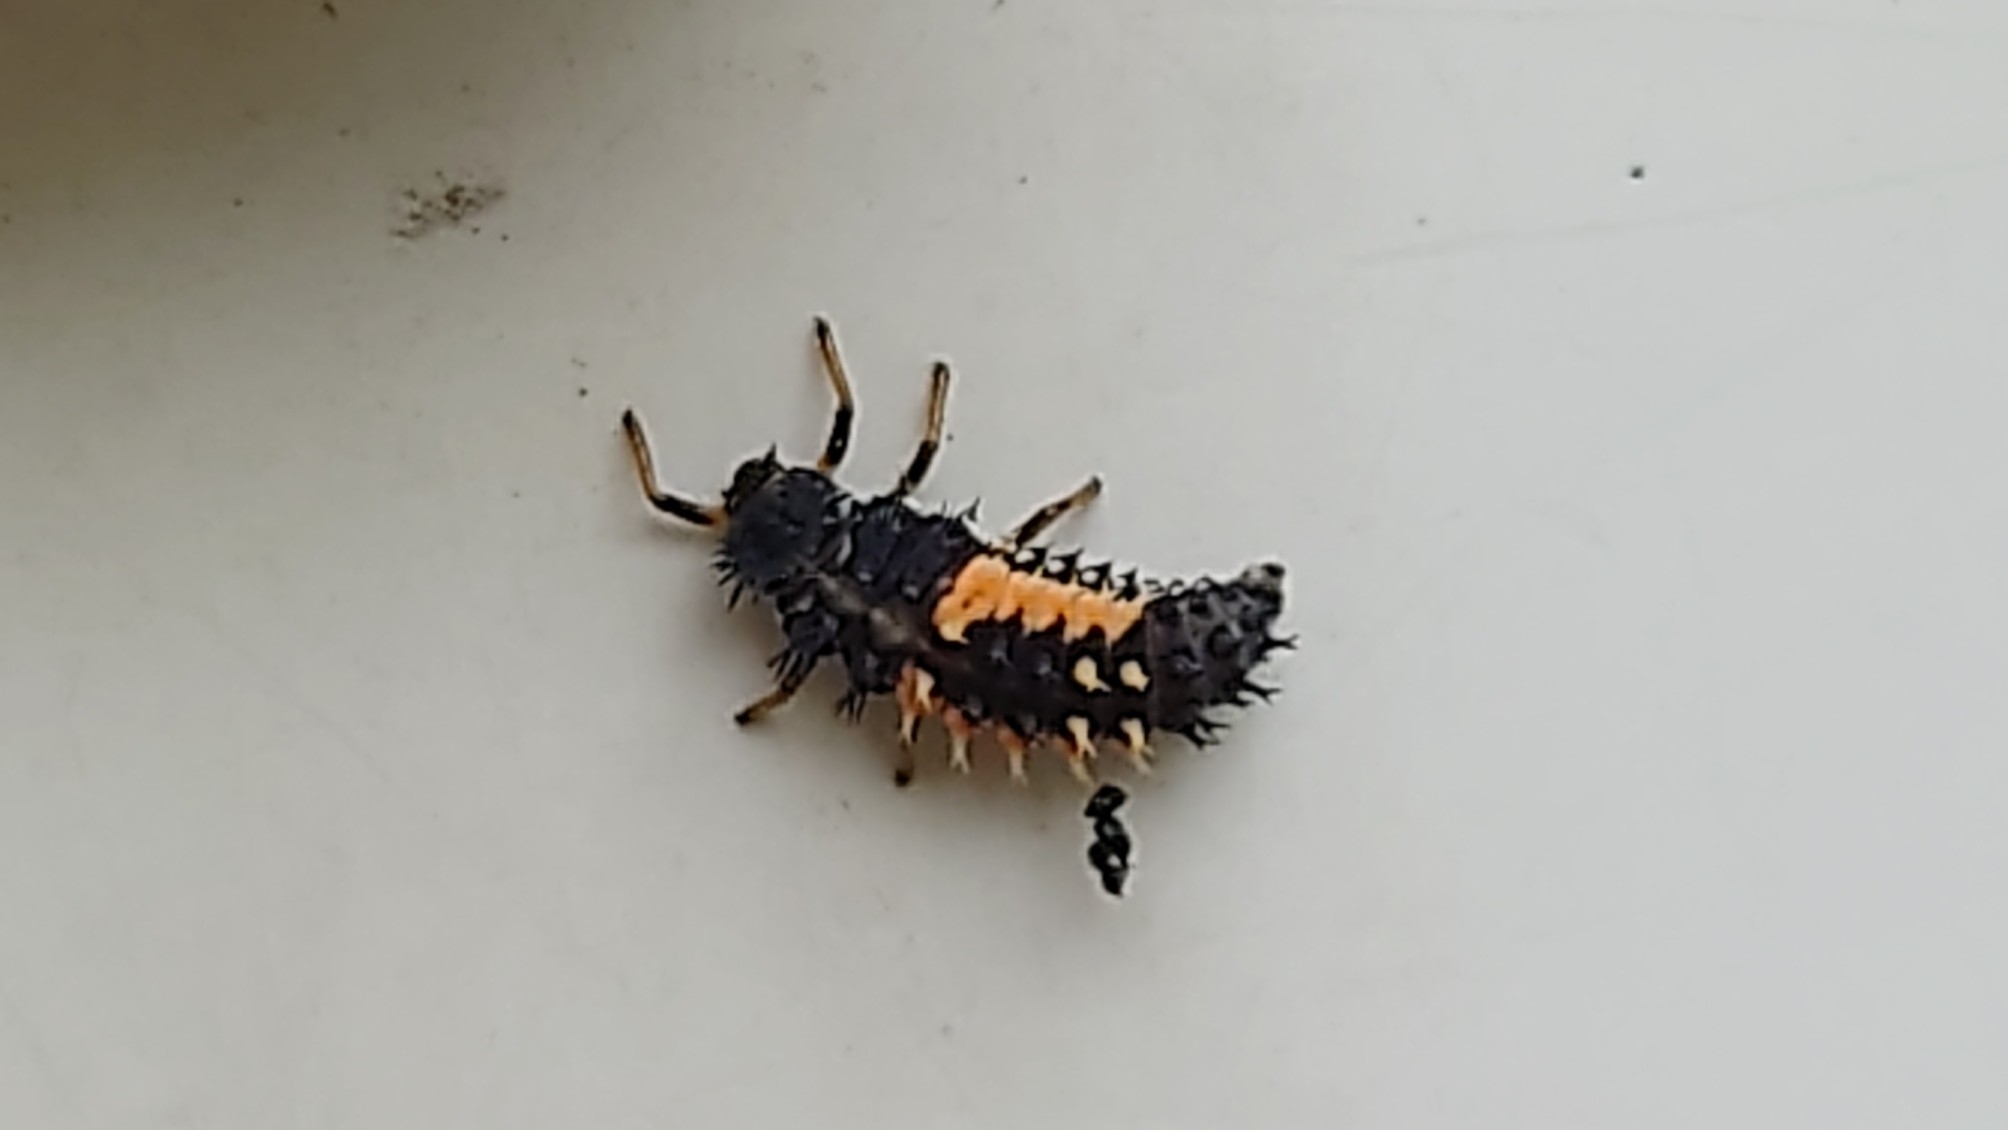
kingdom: Animalia
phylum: Arthropoda
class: Insecta
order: Coleoptera
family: Coccinellidae
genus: Harmonia
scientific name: Harmonia axyridis
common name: Harlequin ladybird
